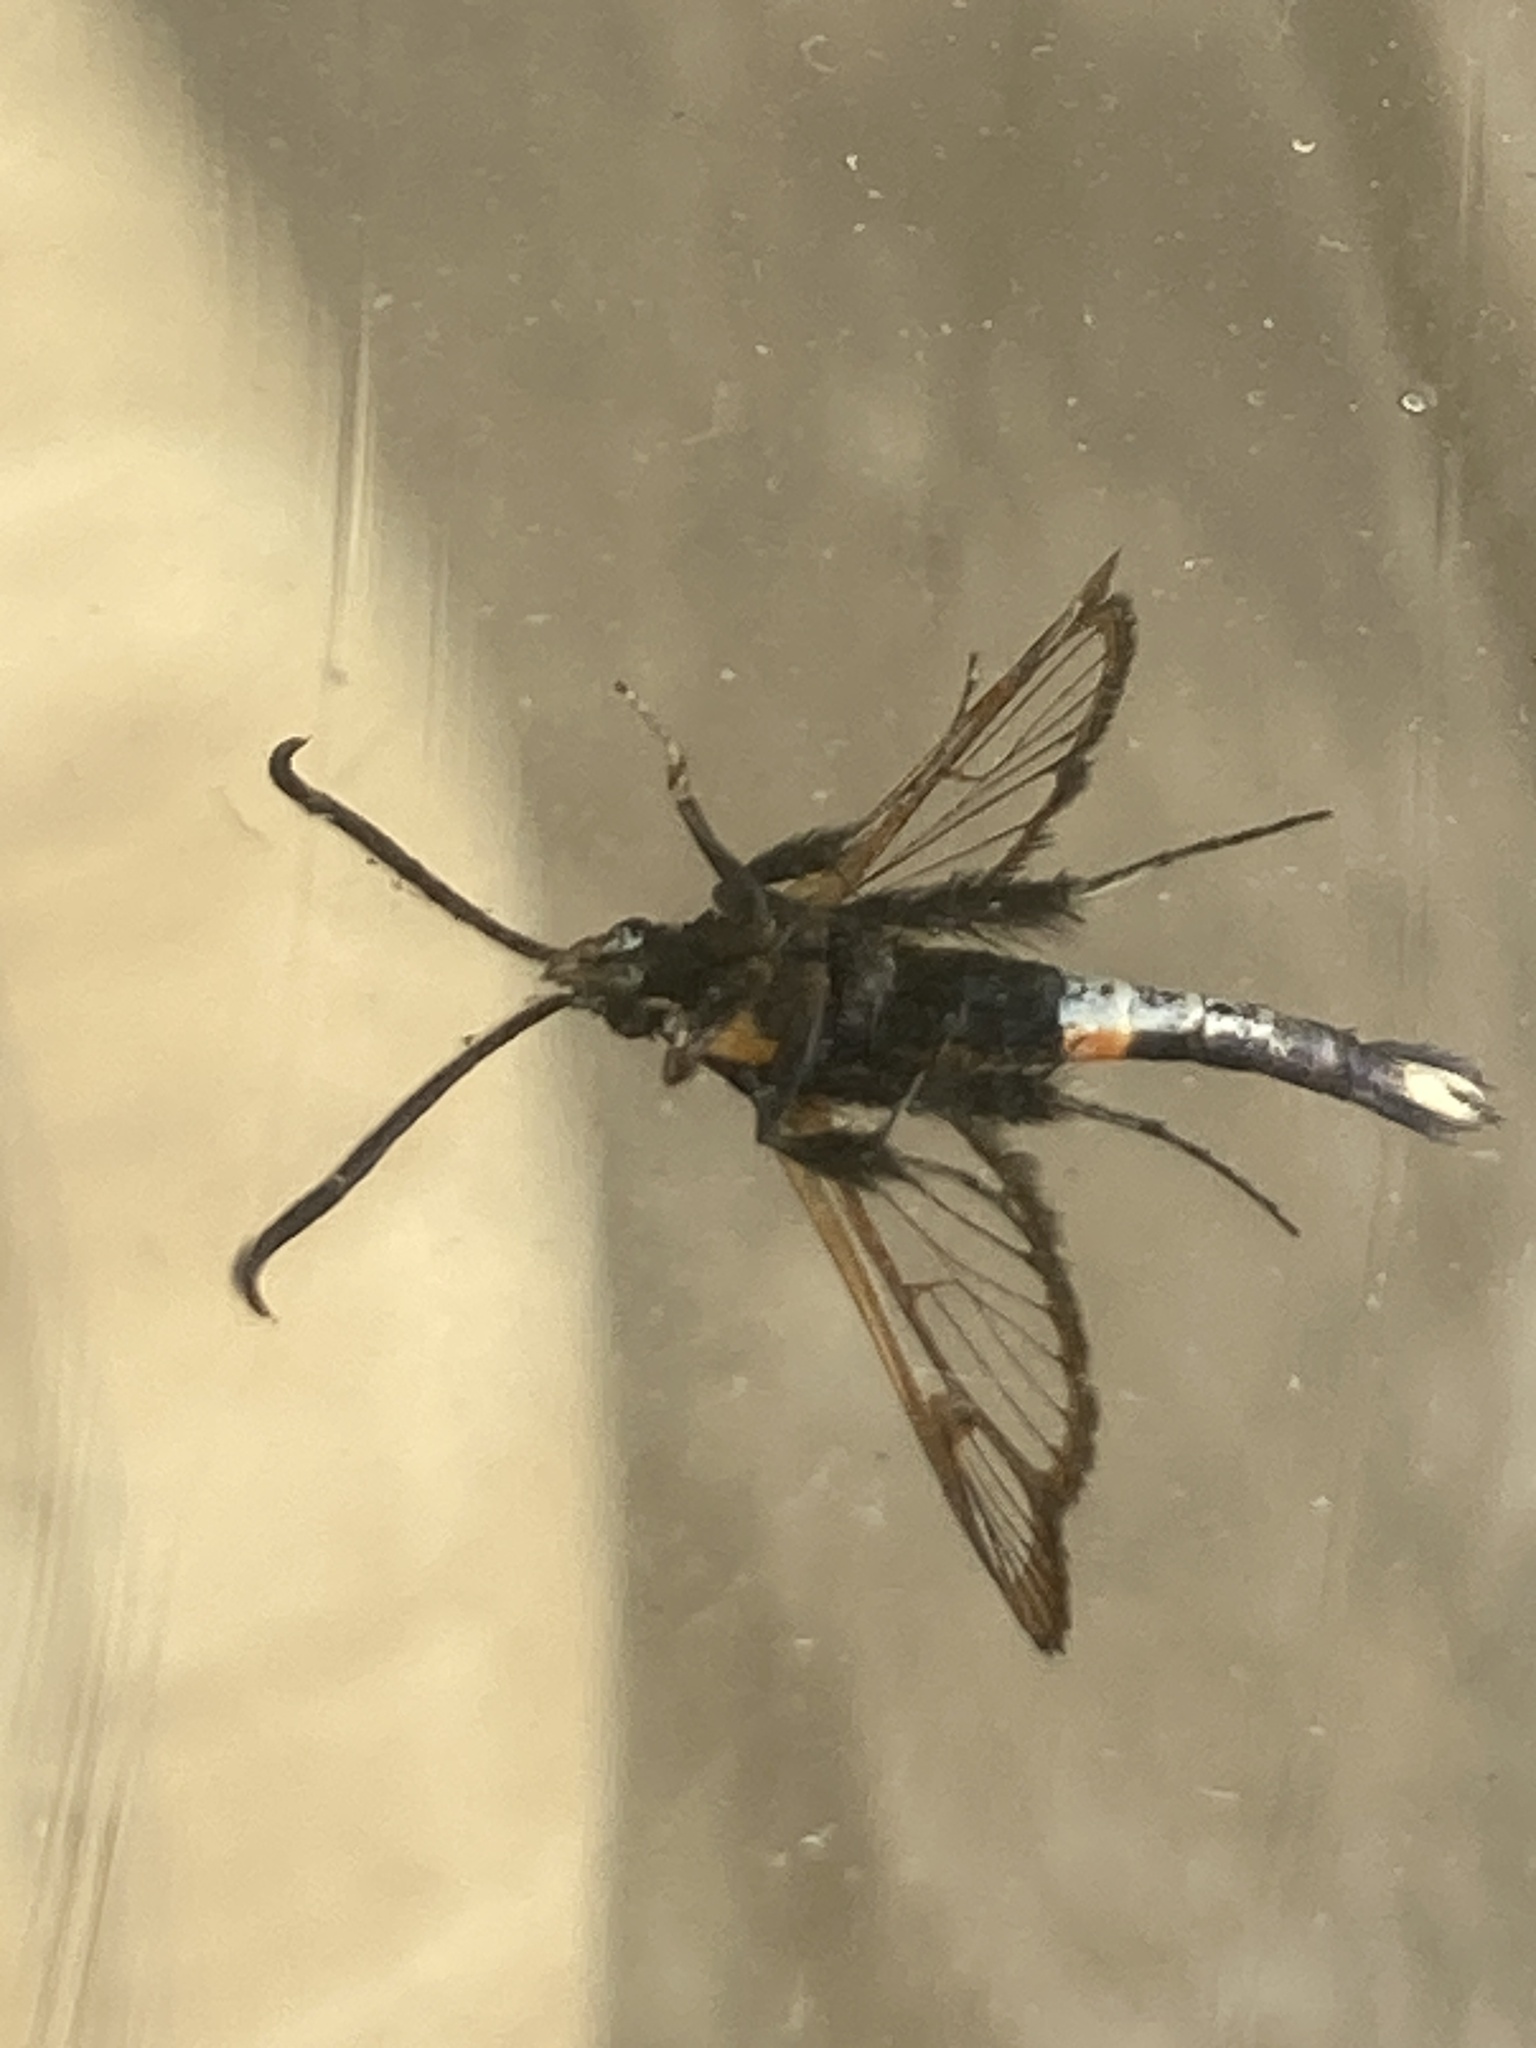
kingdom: Animalia
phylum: Arthropoda
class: Insecta
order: Lepidoptera
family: Sesiidae
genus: Synanthedon
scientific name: Synanthedon myopaeformis
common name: Red-belted clearwing
